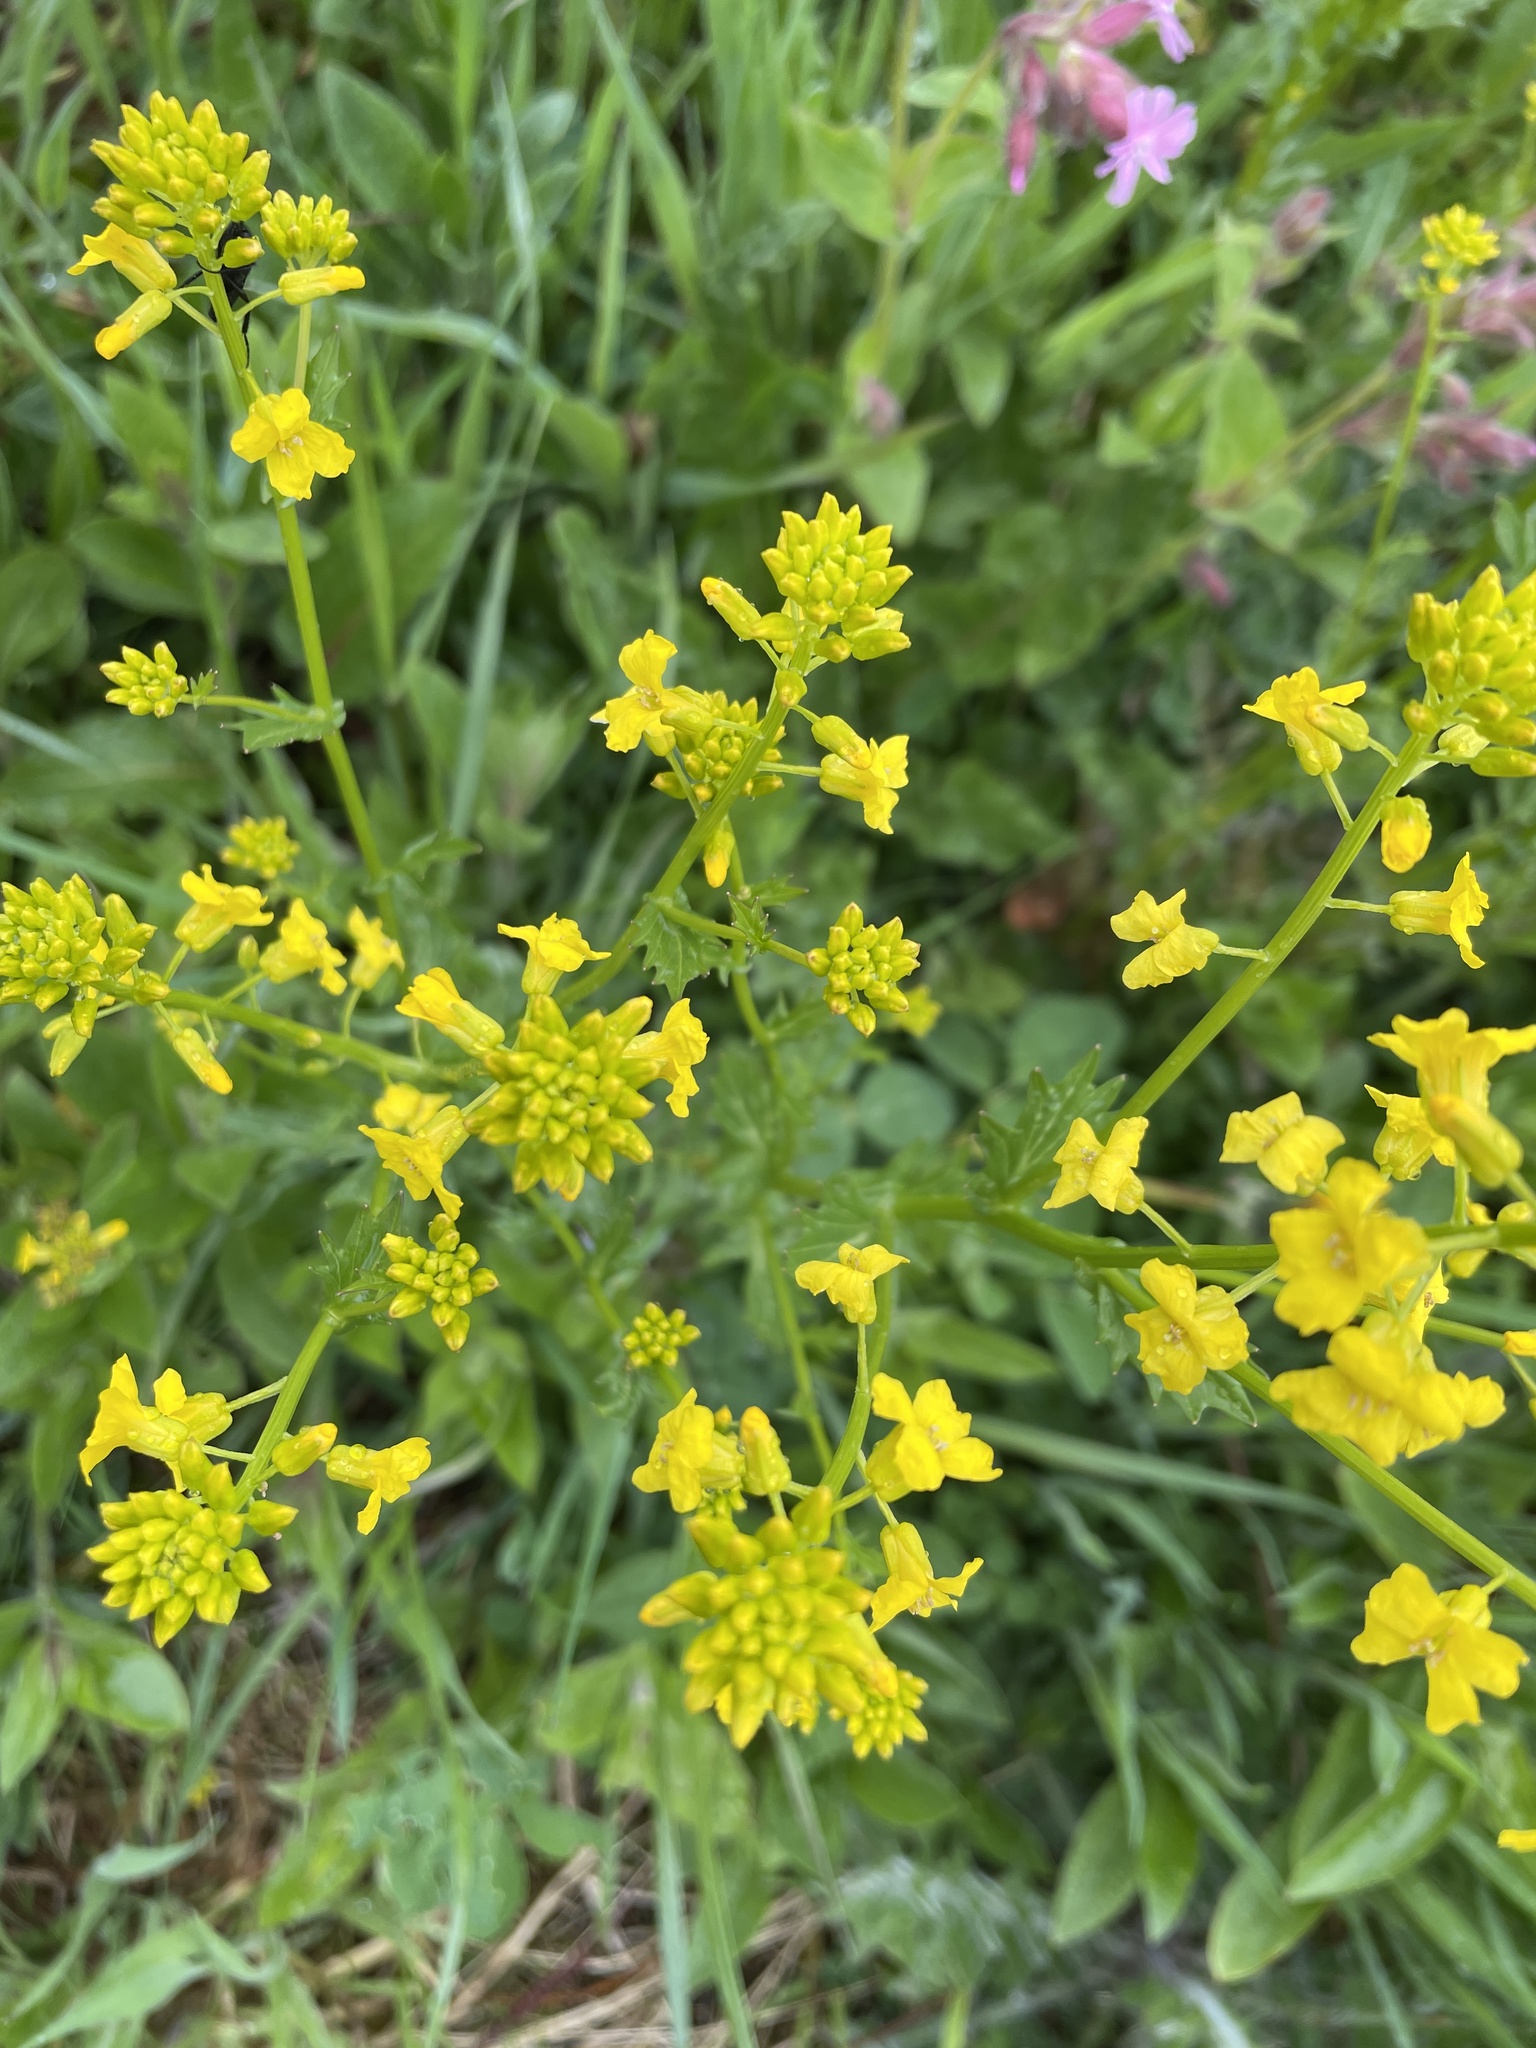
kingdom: Plantae
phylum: Tracheophyta
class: Magnoliopsida
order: Brassicales
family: Brassicaceae
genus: Barbarea
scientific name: Barbarea vulgaris
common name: Cressy-greens
